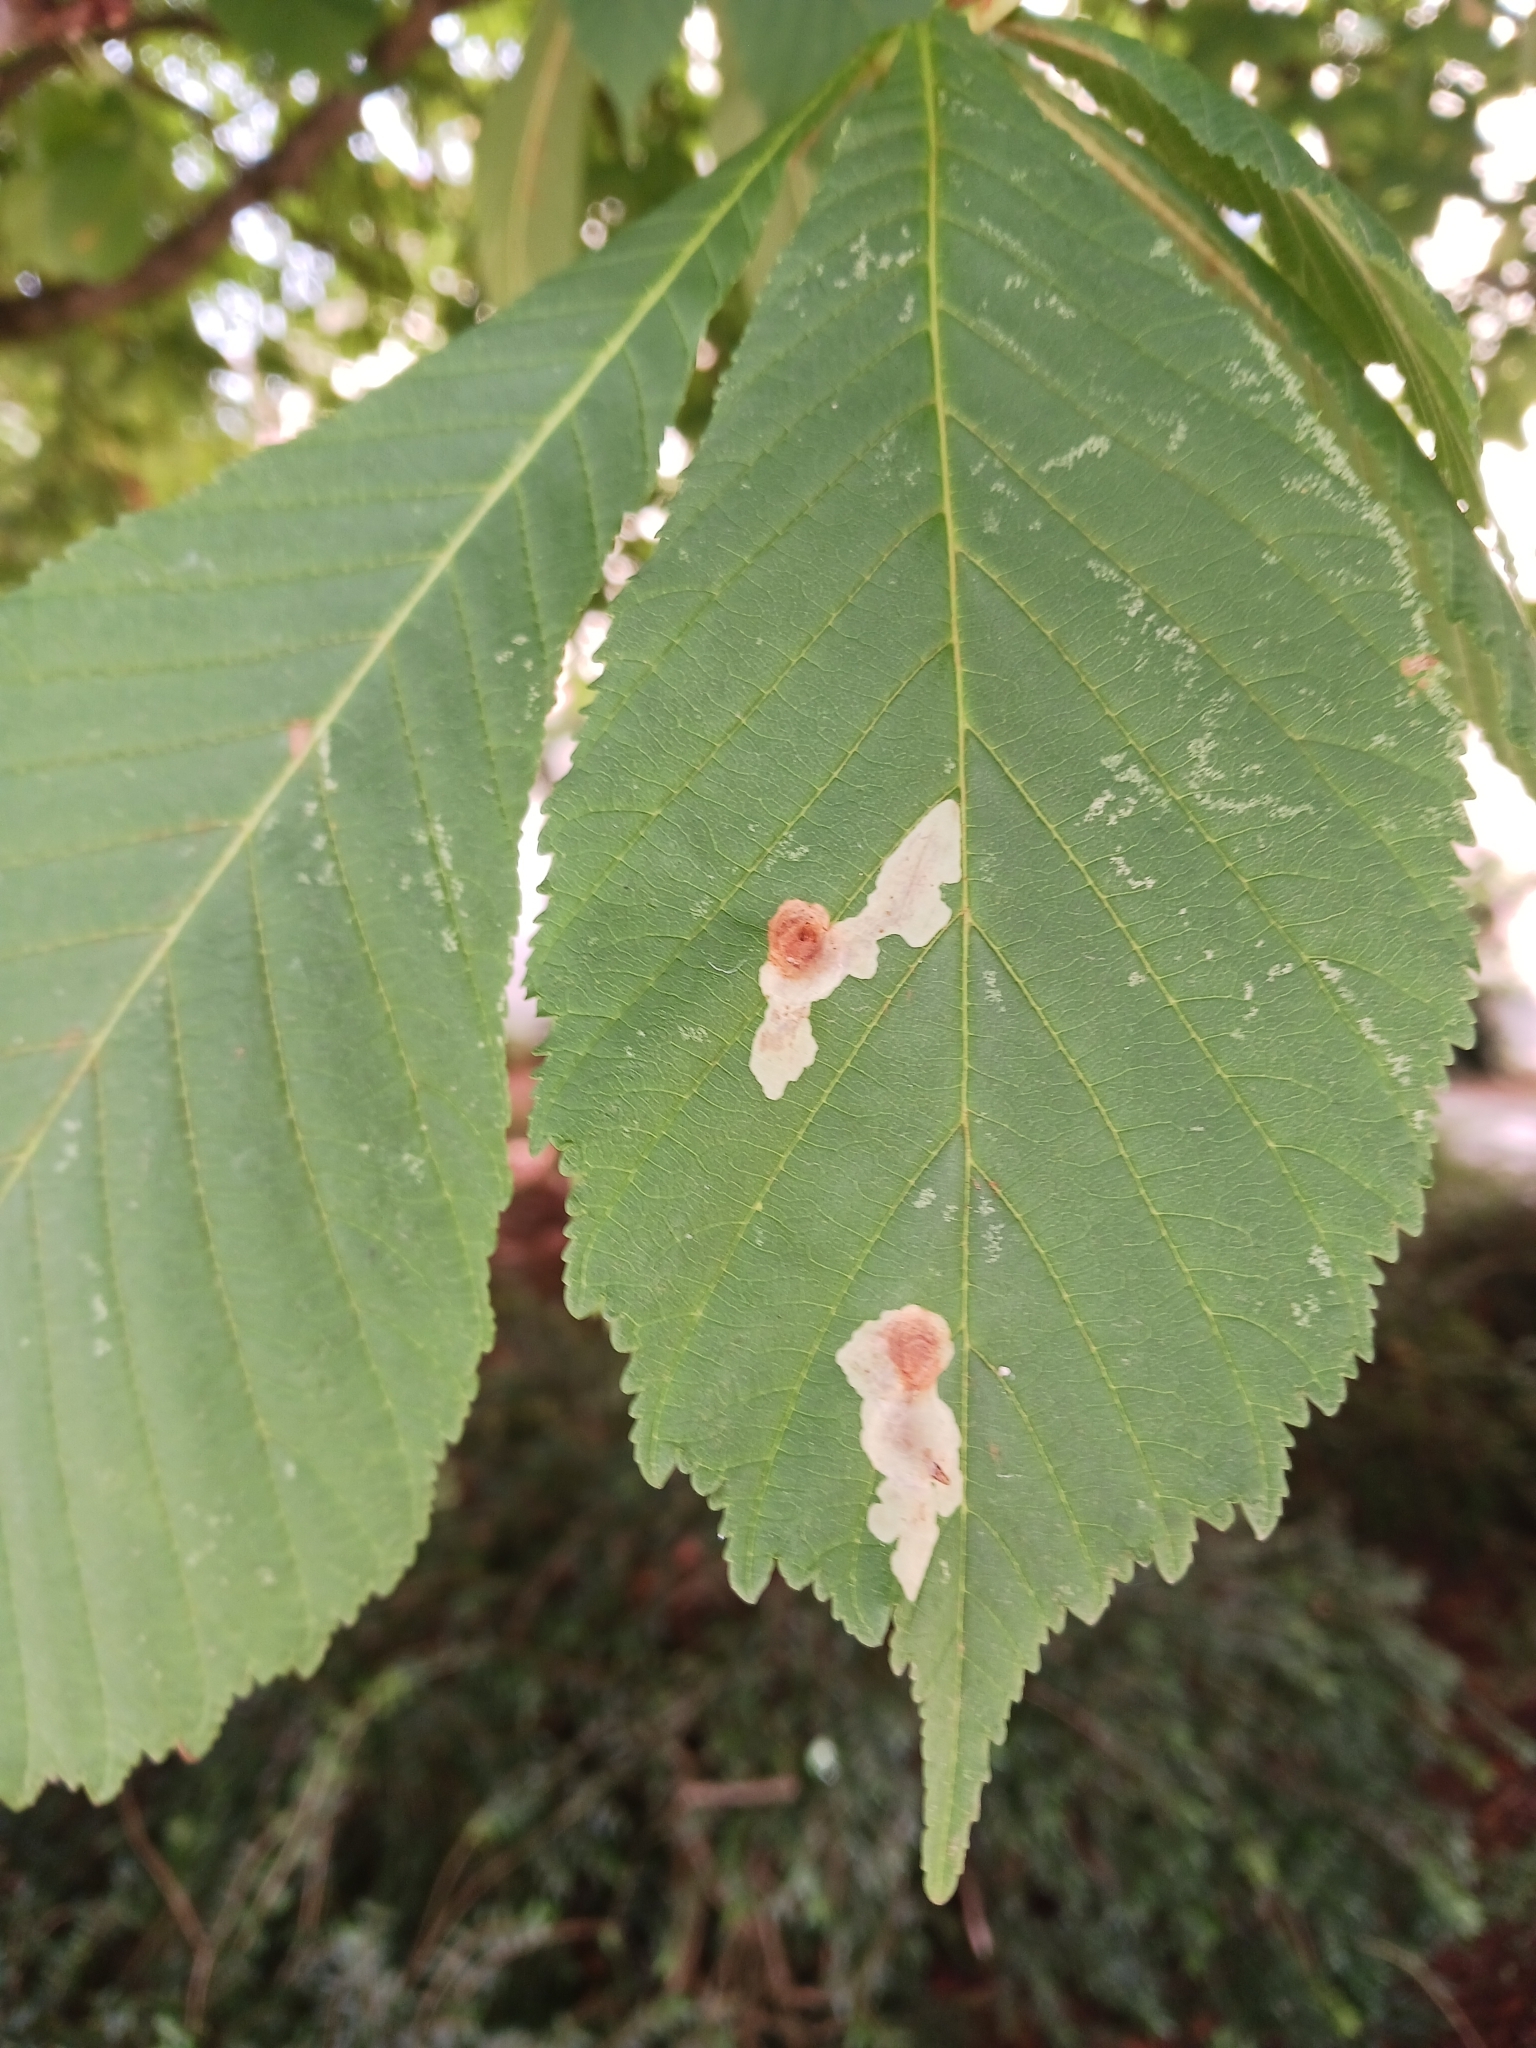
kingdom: Animalia
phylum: Arthropoda
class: Insecta
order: Lepidoptera
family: Gracillariidae
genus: Cameraria
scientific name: Cameraria ohridella
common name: Horse-chestnut leaf-miner
